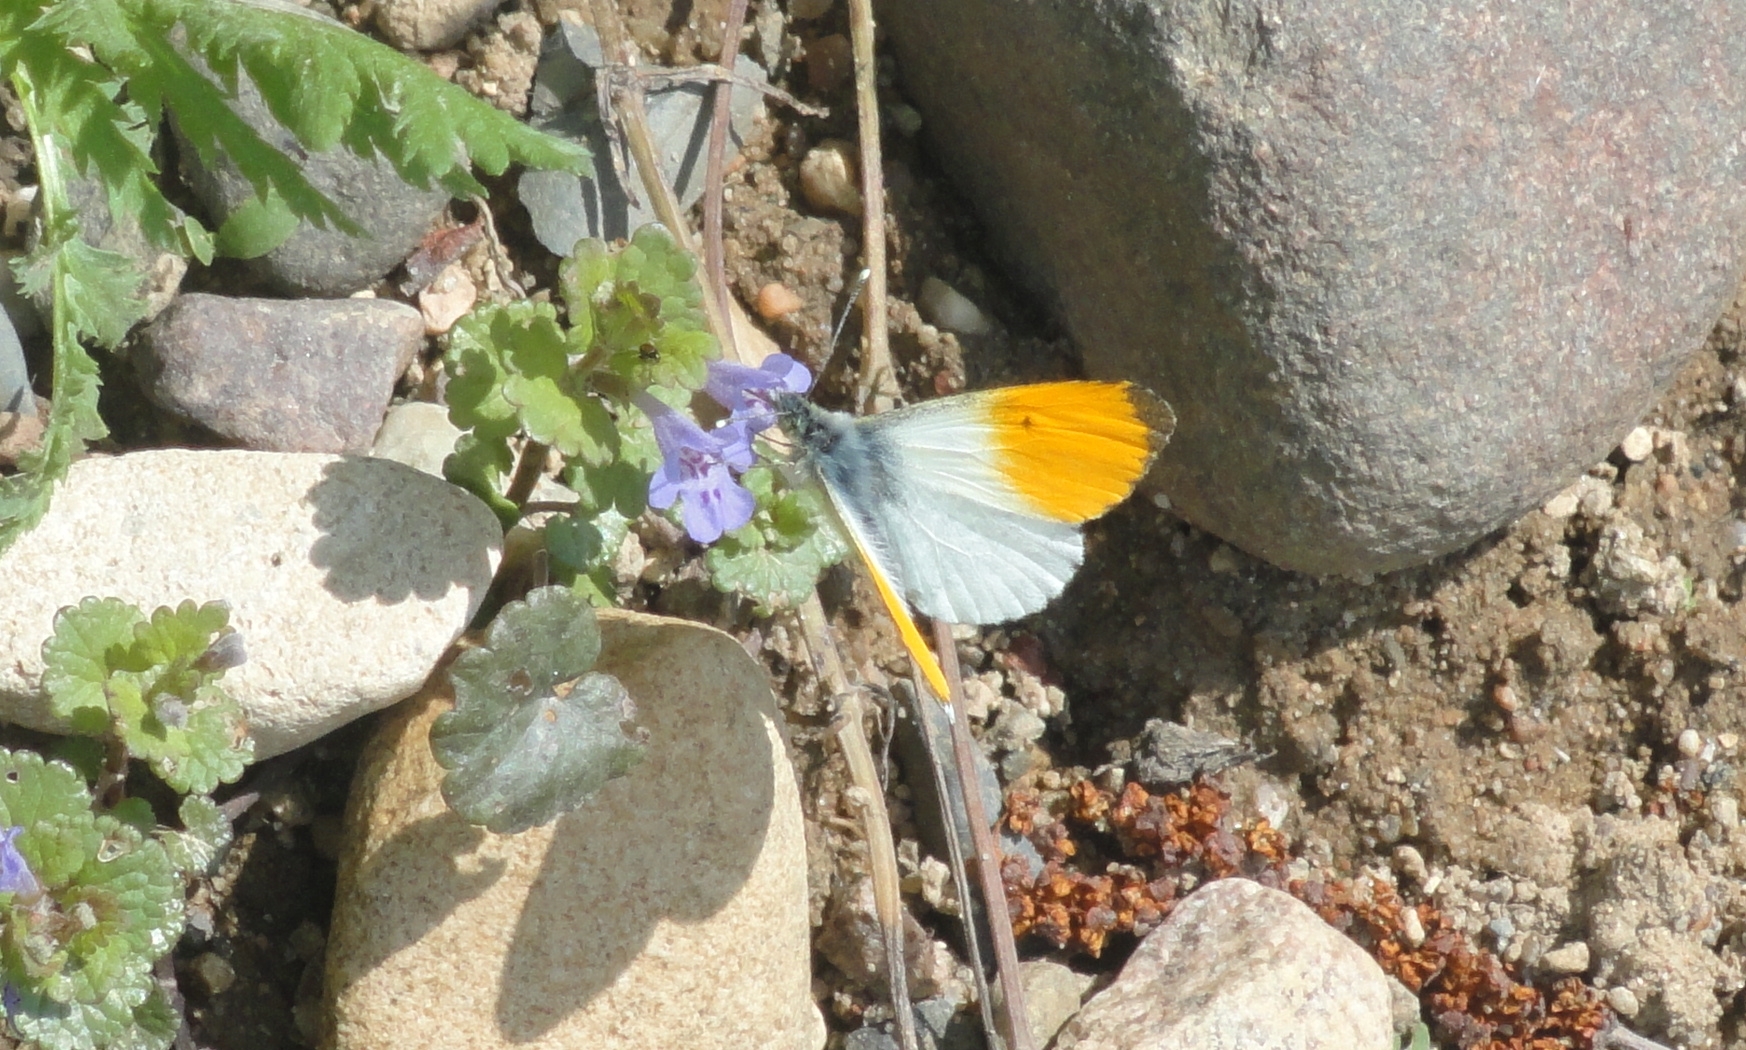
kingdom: Animalia
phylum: Arthropoda
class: Insecta
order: Lepidoptera
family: Pieridae
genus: Anthocharis
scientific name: Anthocharis cardamines
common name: Orange-tip
